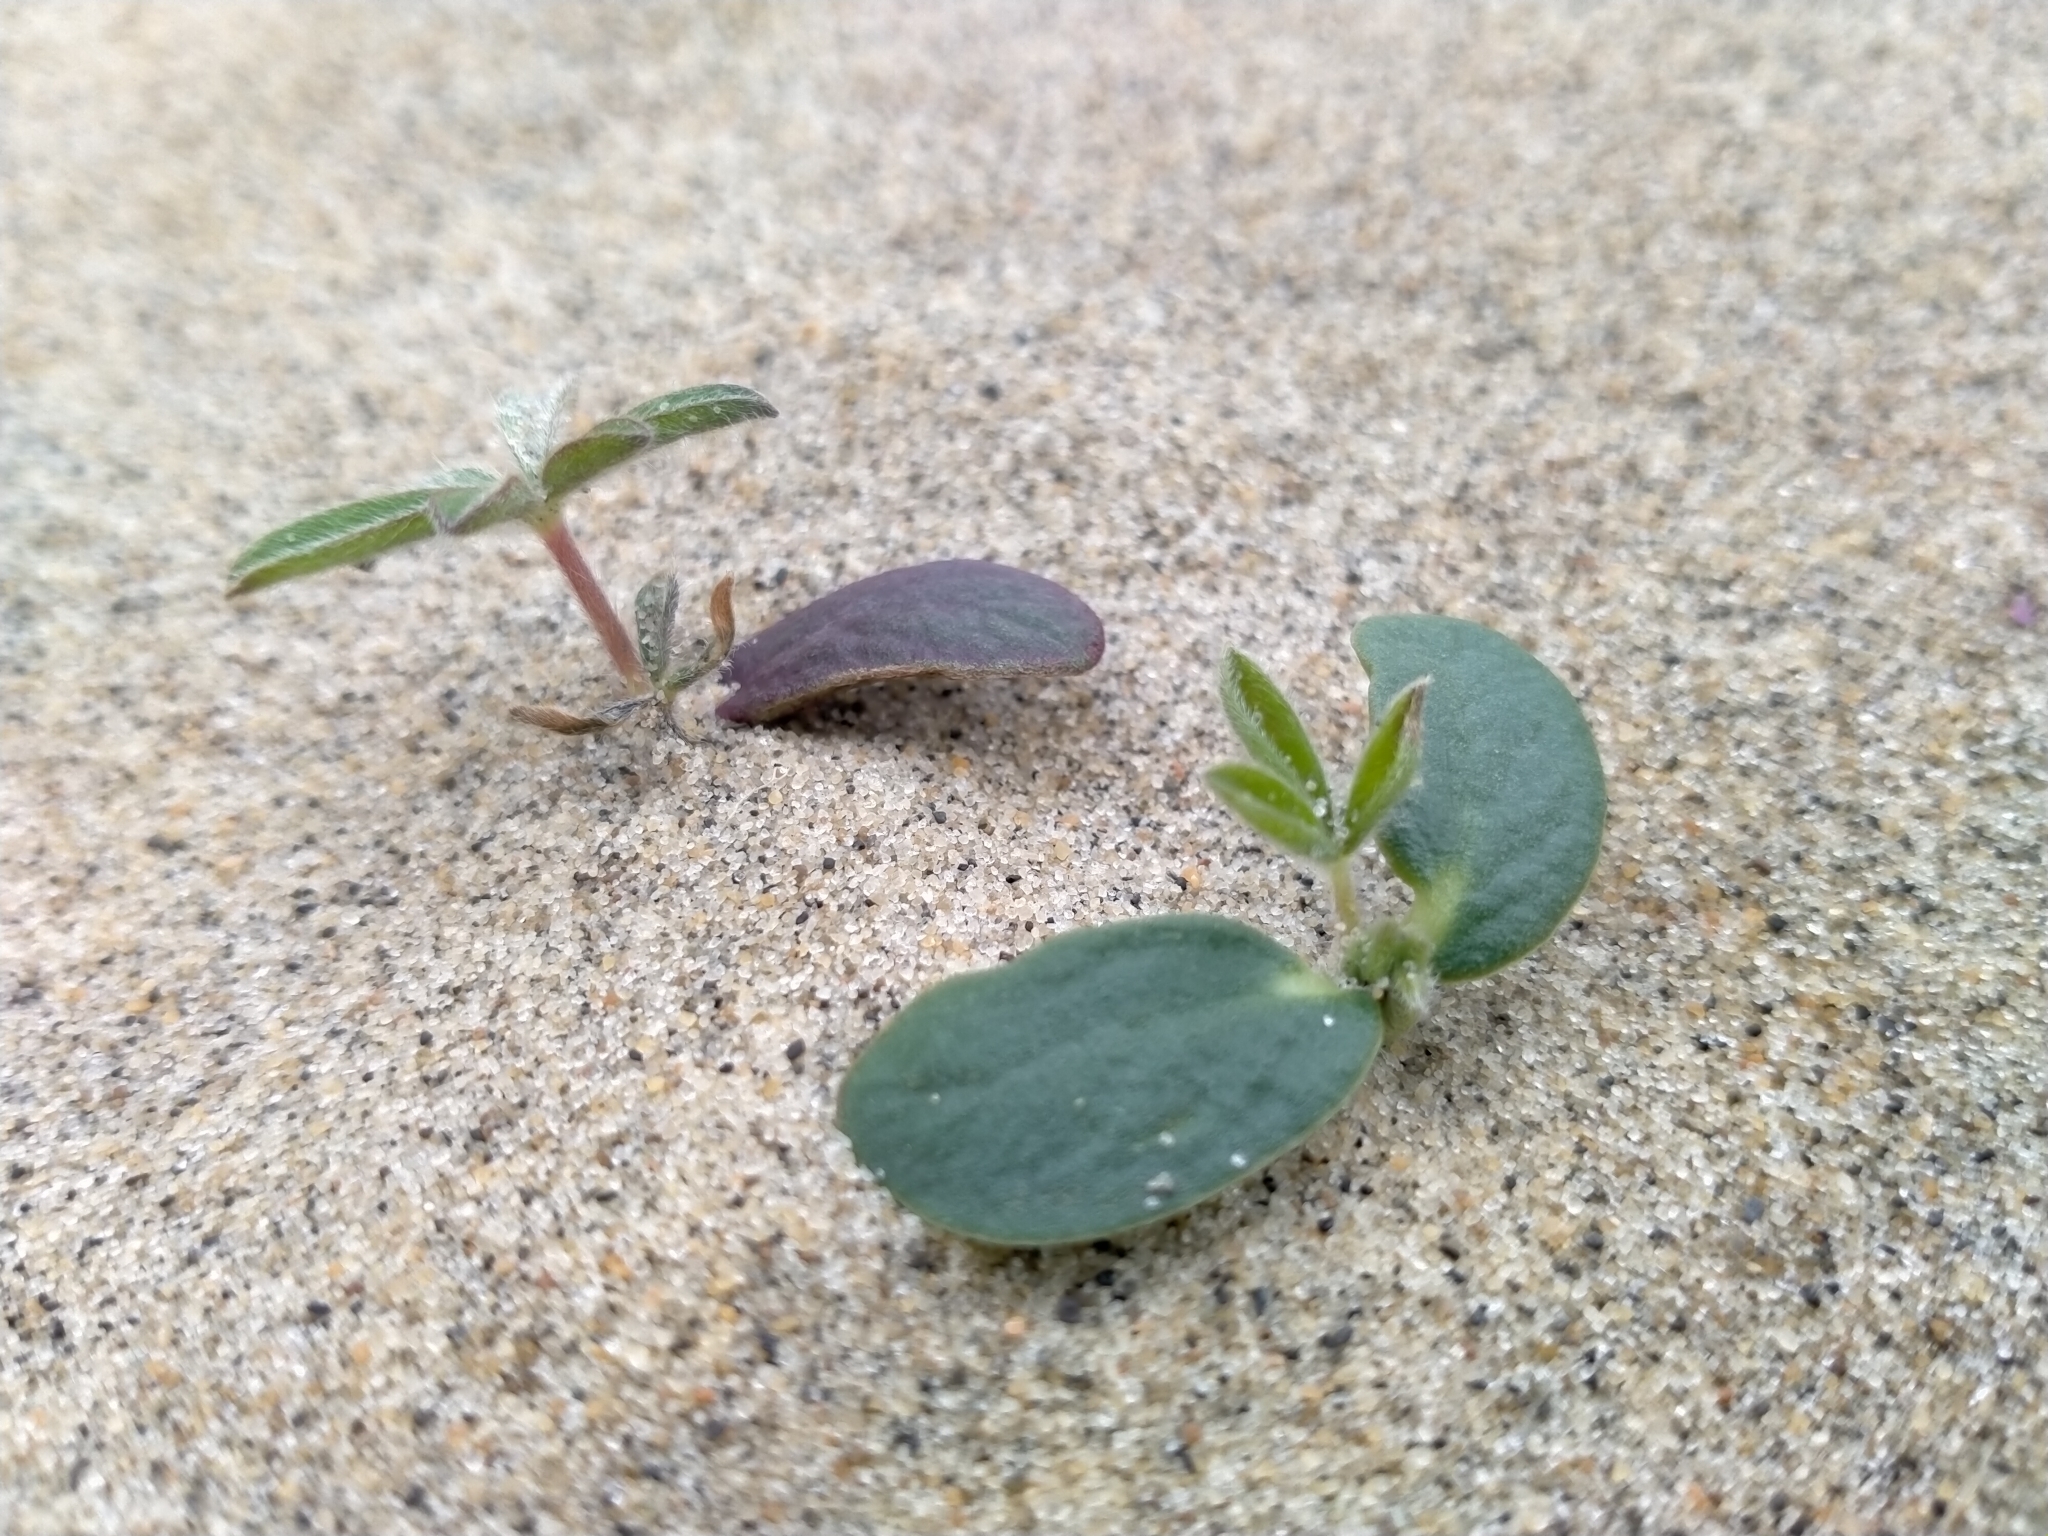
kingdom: Plantae
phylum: Tracheophyta
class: Magnoliopsida
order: Fabales
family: Fabaceae
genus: Lupinus
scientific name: Lupinus arboreus
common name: Yellow bush lupine
